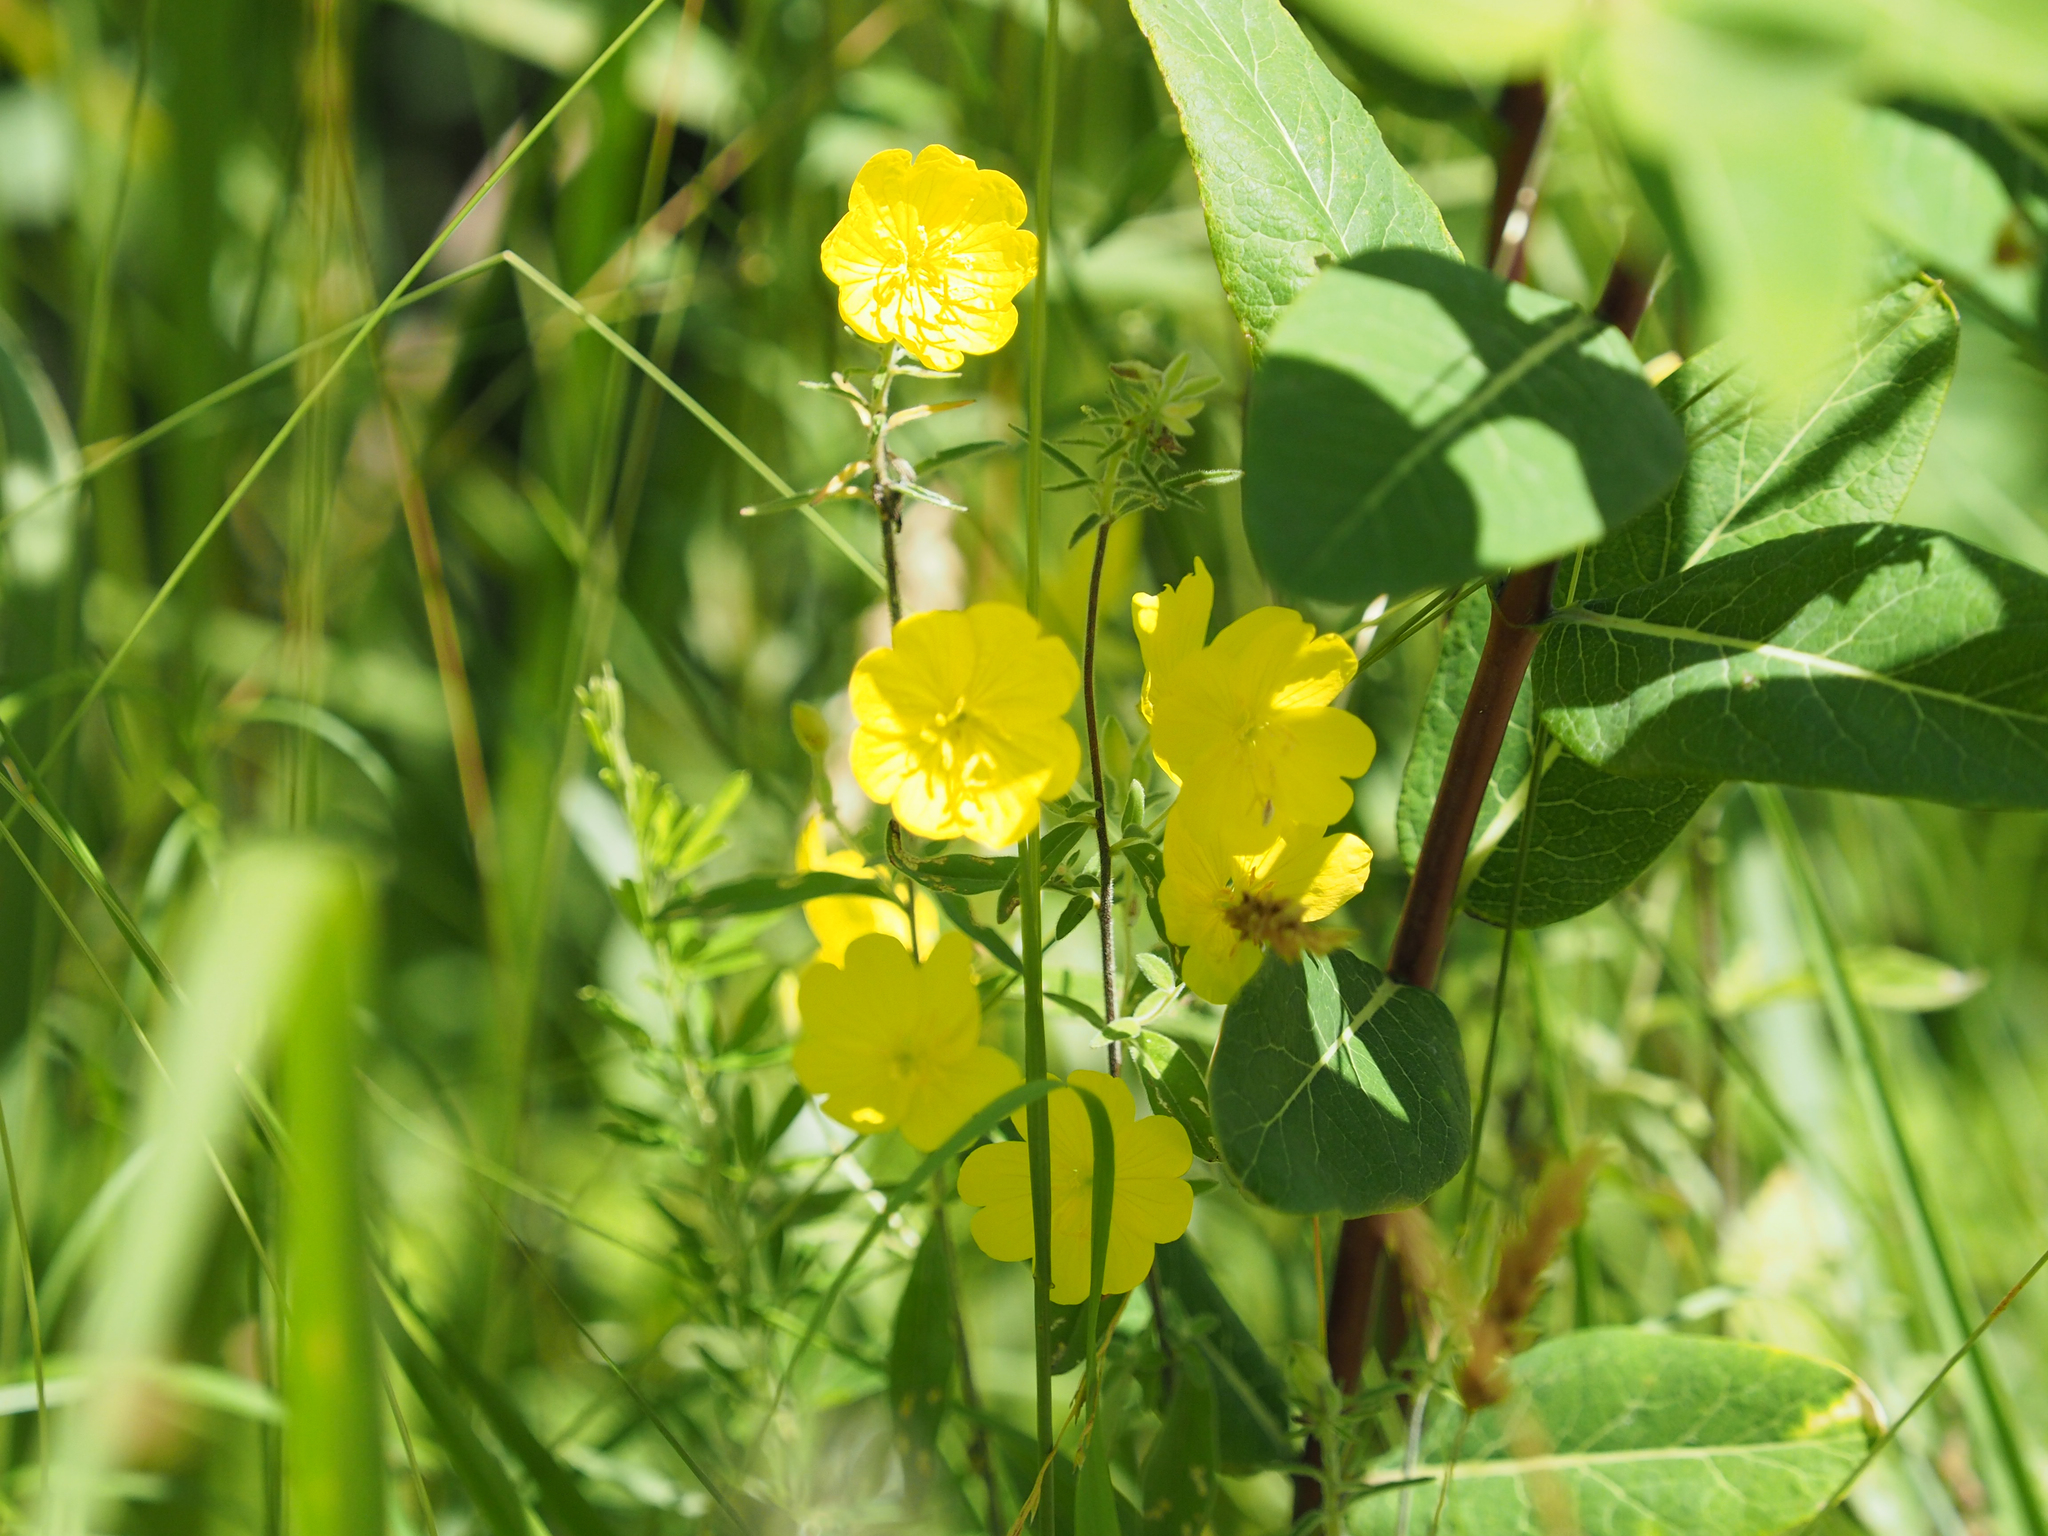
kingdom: Plantae
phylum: Tracheophyta
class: Magnoliopsida
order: Myrtales
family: Onagraceae
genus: Oenothera
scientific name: Oenothera fruticosa
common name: Southern sundrops
